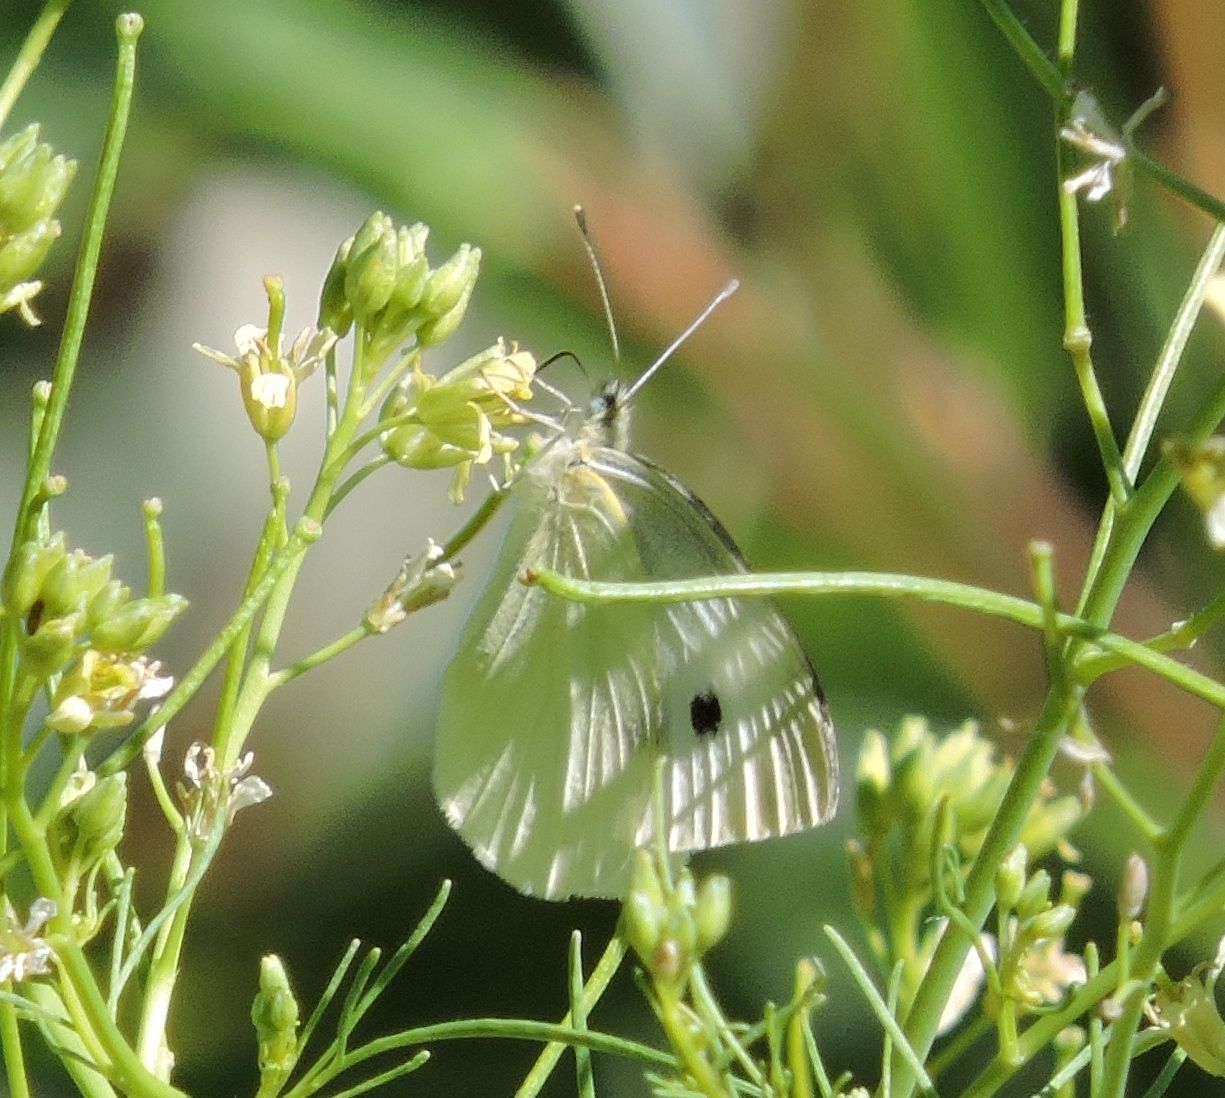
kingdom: Animalia
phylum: Arthropoda
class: Insecta
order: Lepidoptera
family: Pieridae
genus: Pieris
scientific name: Pieris rapae
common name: Small white
